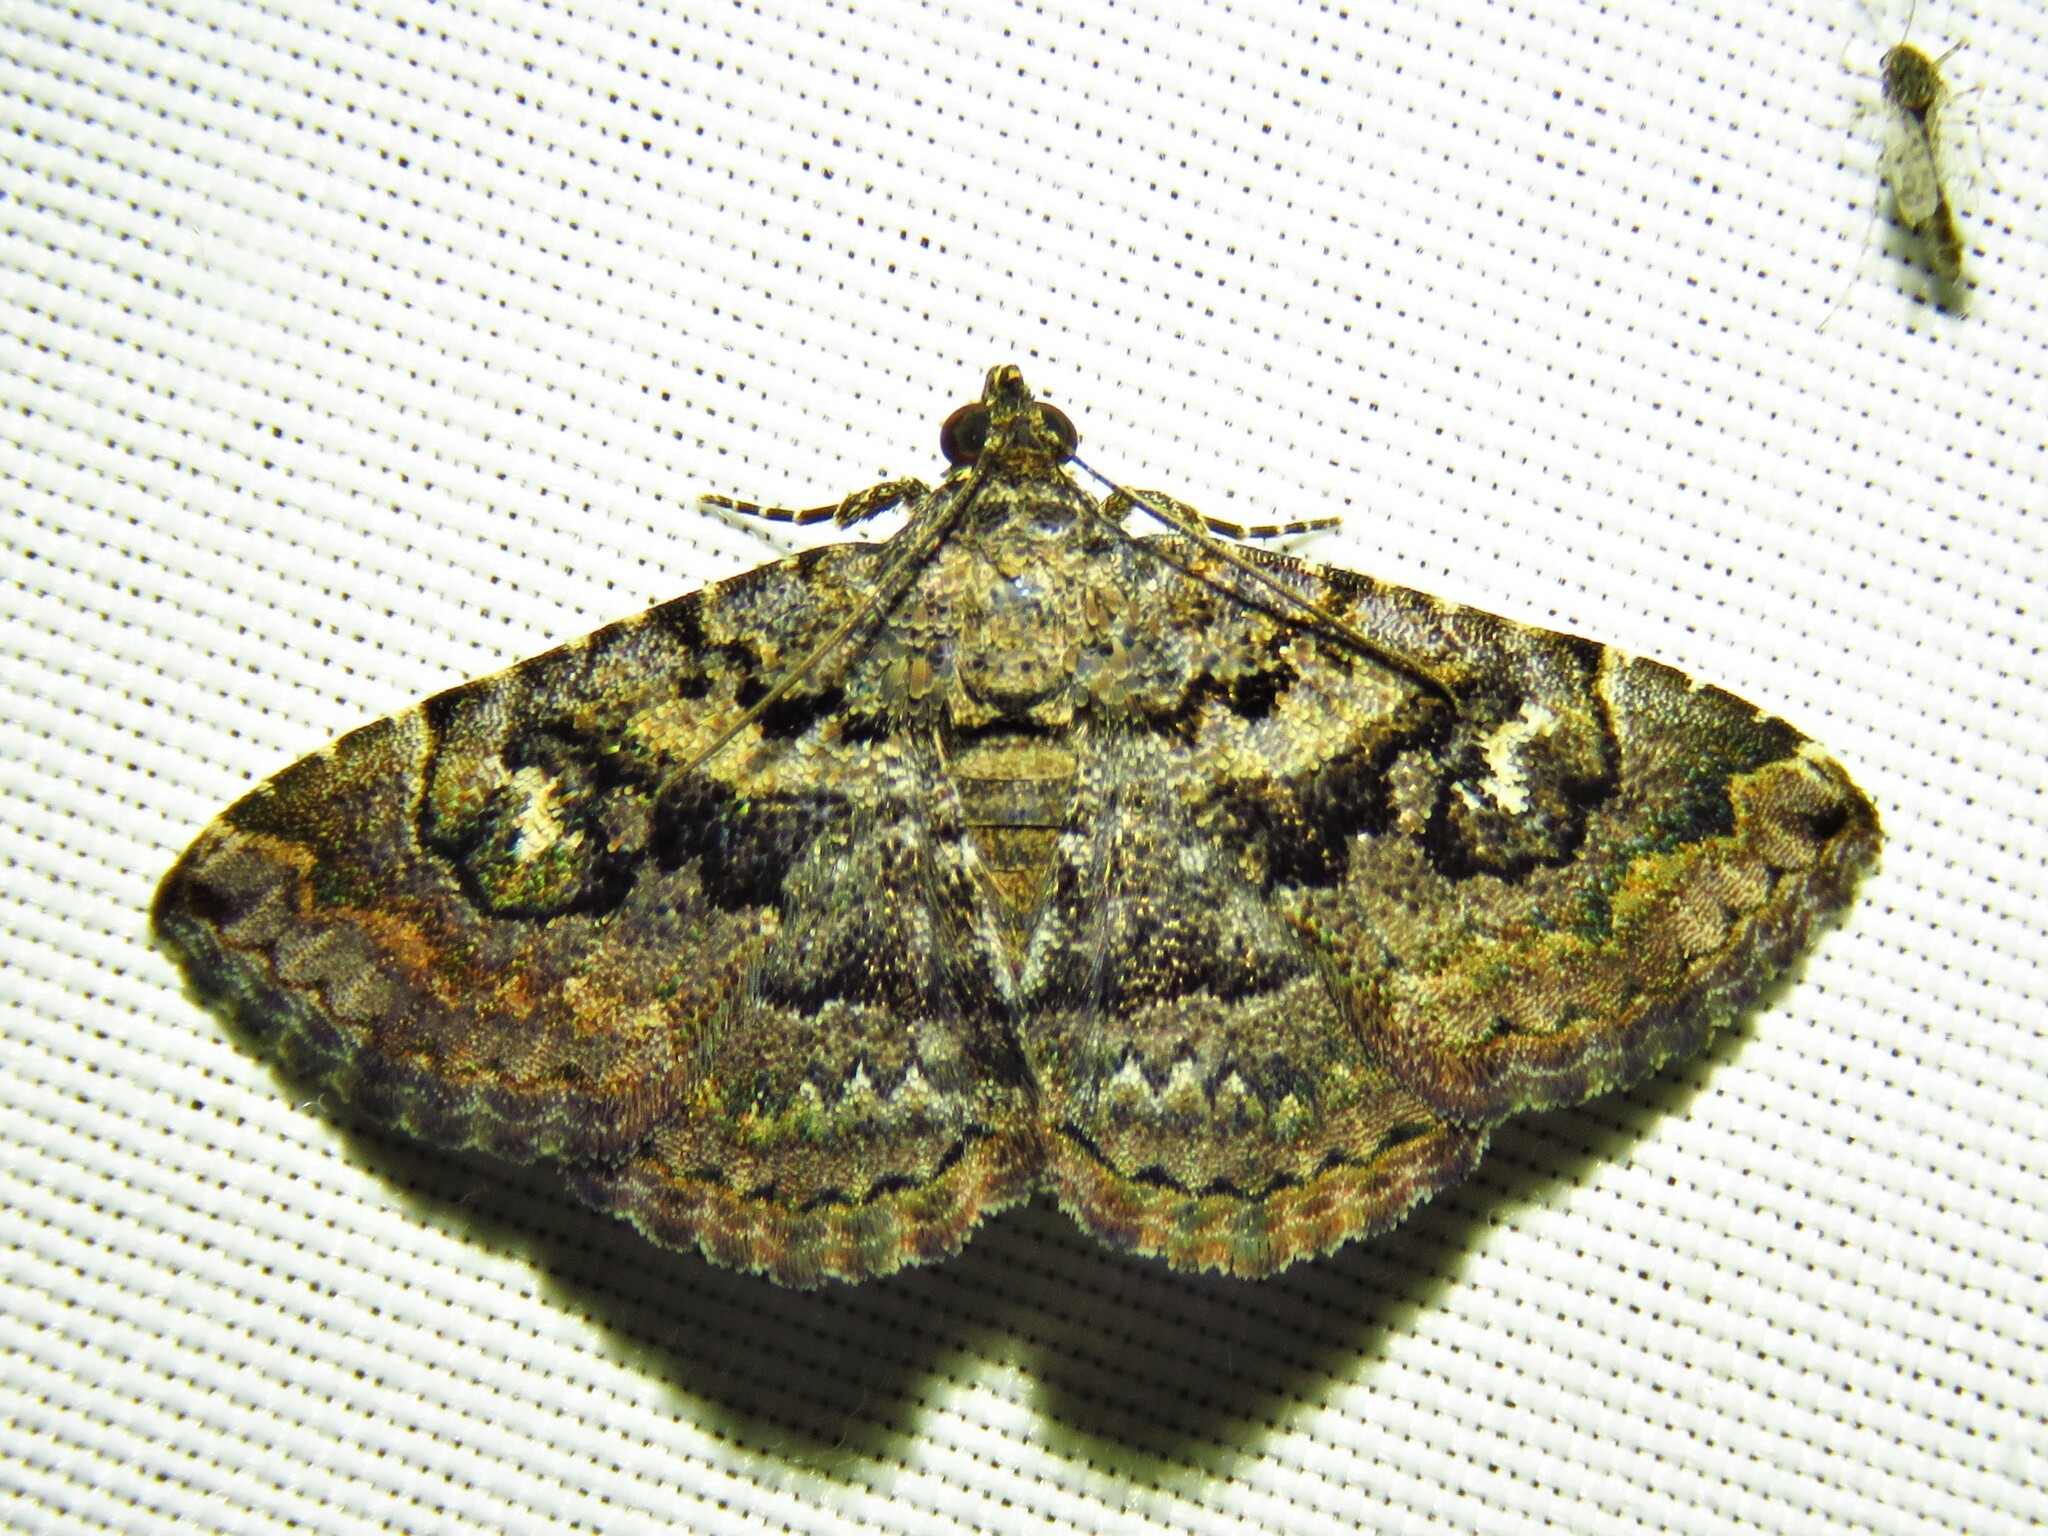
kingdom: Animalia
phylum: Arthropoda
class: Insecta
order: Lepidoptera
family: Erebidae
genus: Toxonprucha
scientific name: Toxonprucha excavata
